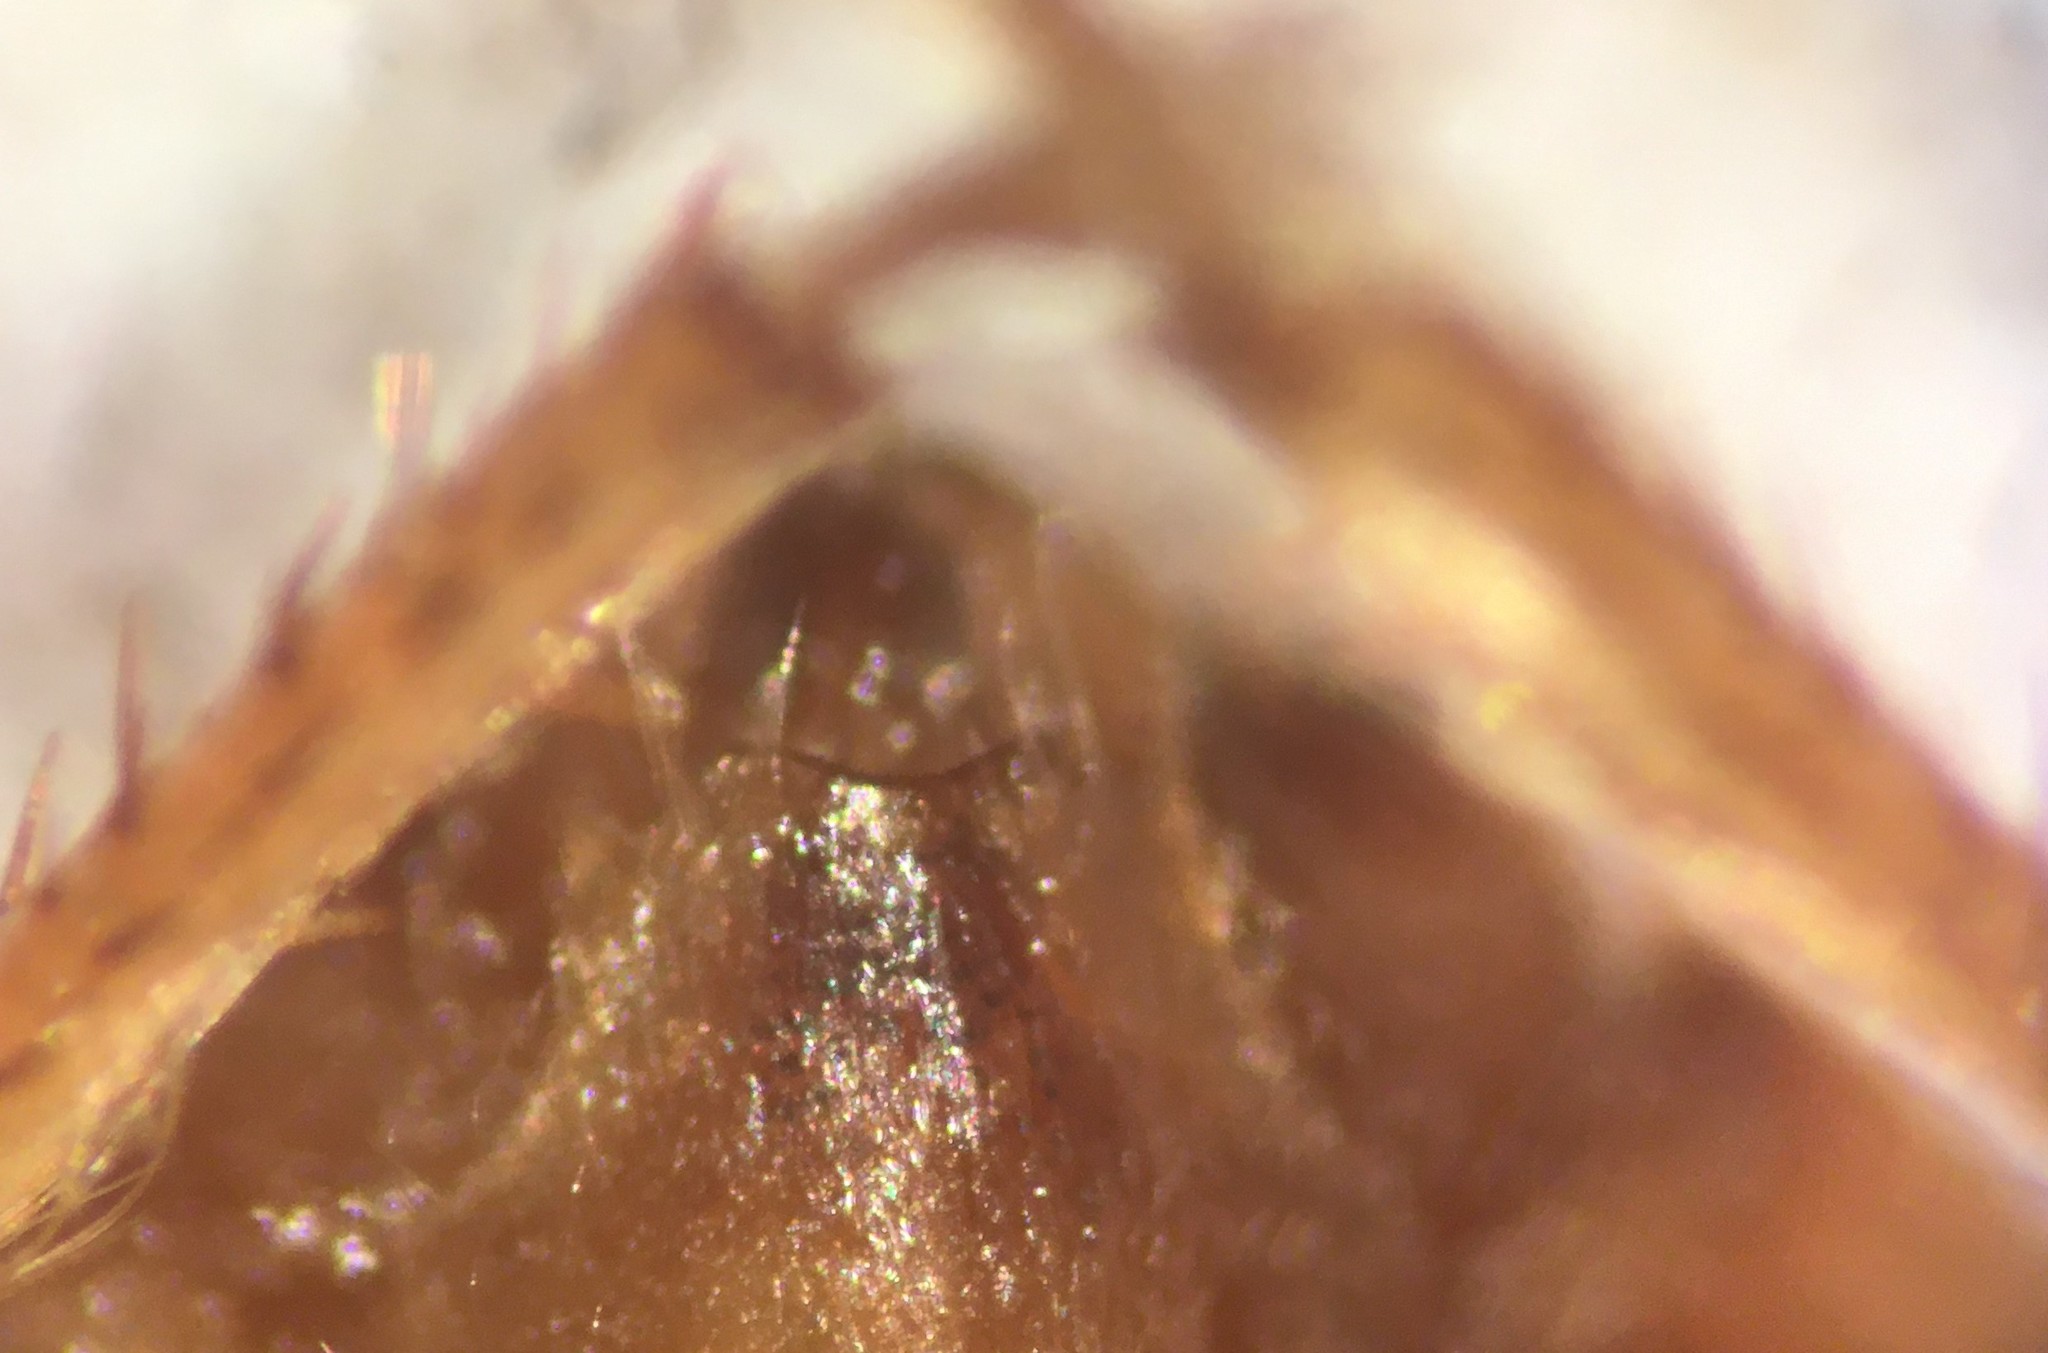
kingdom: Animalia
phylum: Arthropoda
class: Insecta
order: Hemiptera
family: Naucoridae
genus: Pelocoris
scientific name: Pelocoris femoratus
